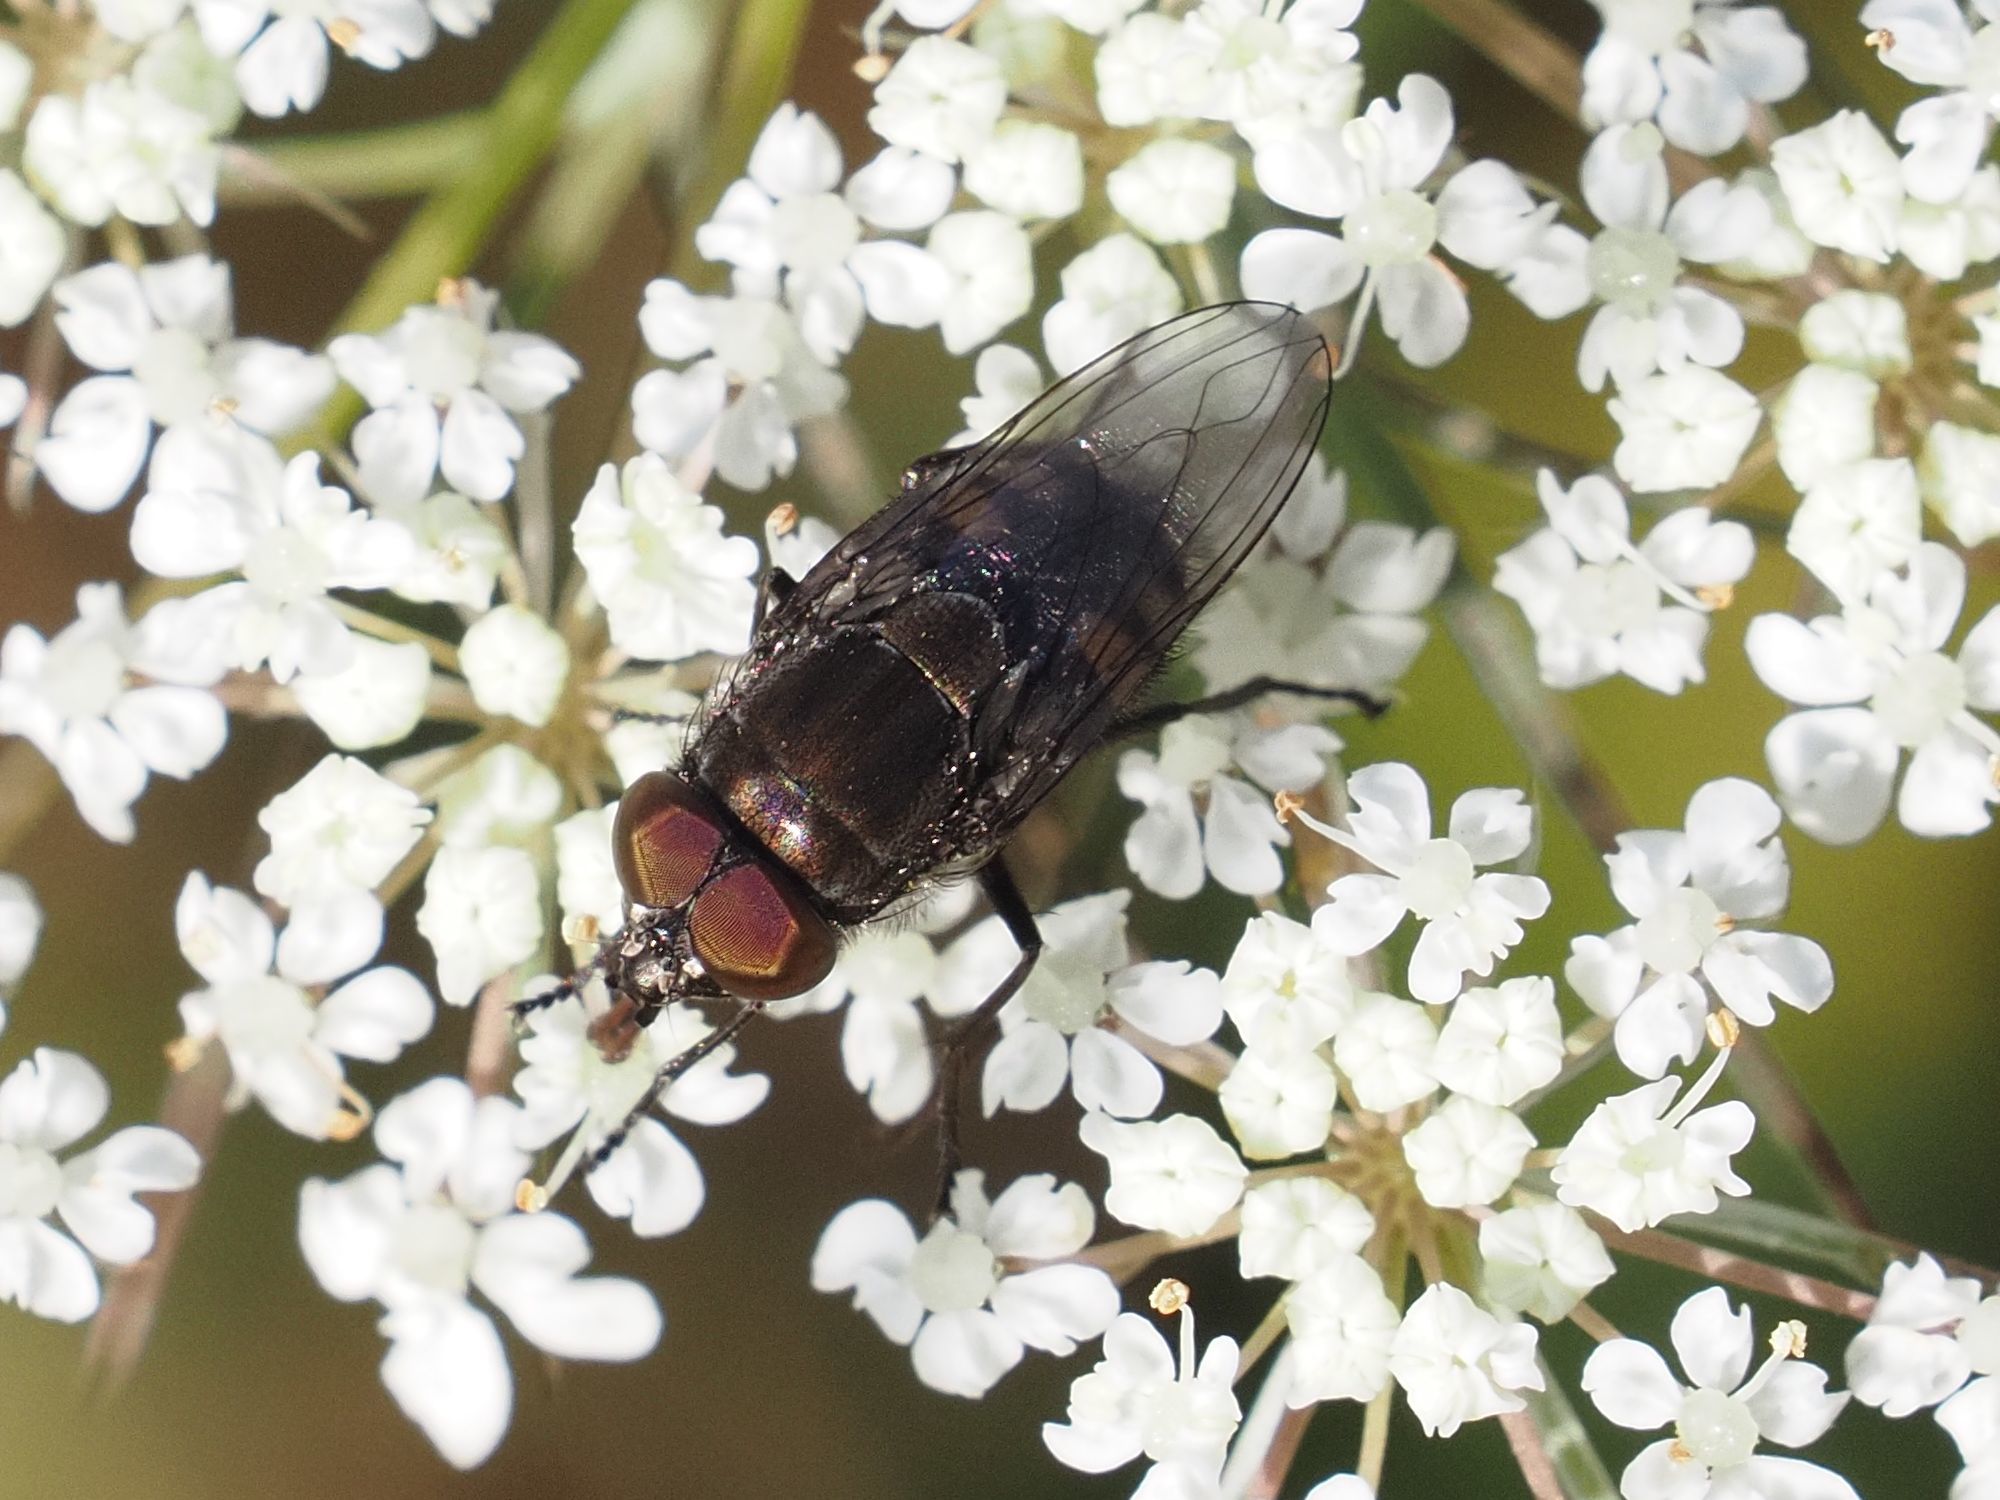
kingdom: Animalia
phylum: Arthropoda
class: Insecta
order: Diptera
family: Calliphoridae
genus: Stomorhina
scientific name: Stomorhina lunata
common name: Locust blowfly
